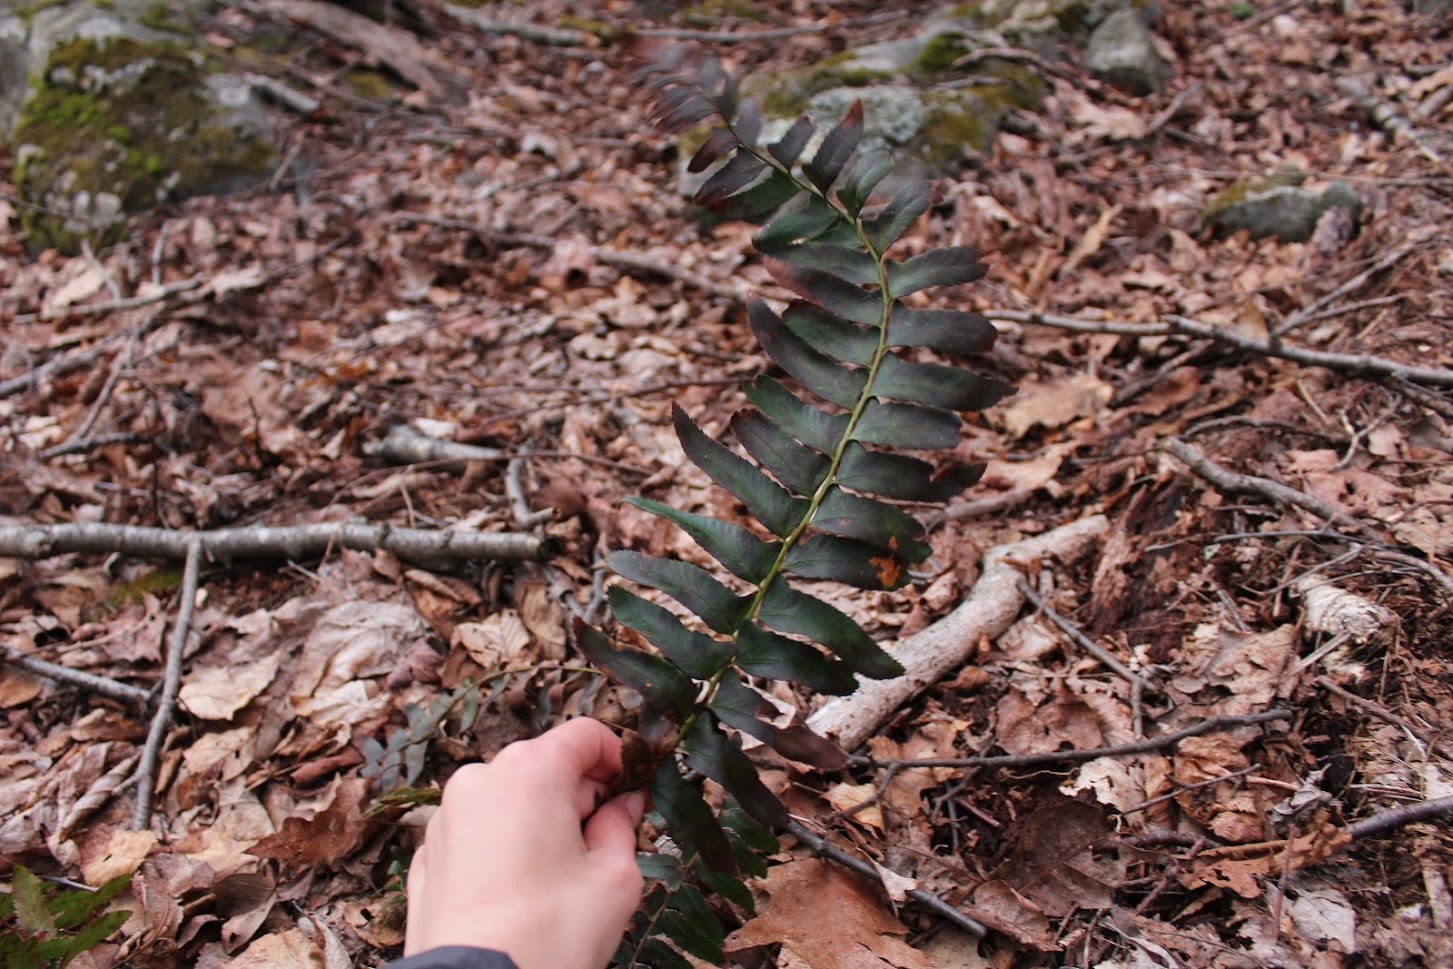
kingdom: Plantae
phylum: Tracheophyta
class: Polypodiopsida
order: Polypodiales
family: Dryopteridaceae
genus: Polystichum
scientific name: Polystichum acrostichoides
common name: Christmas fern
